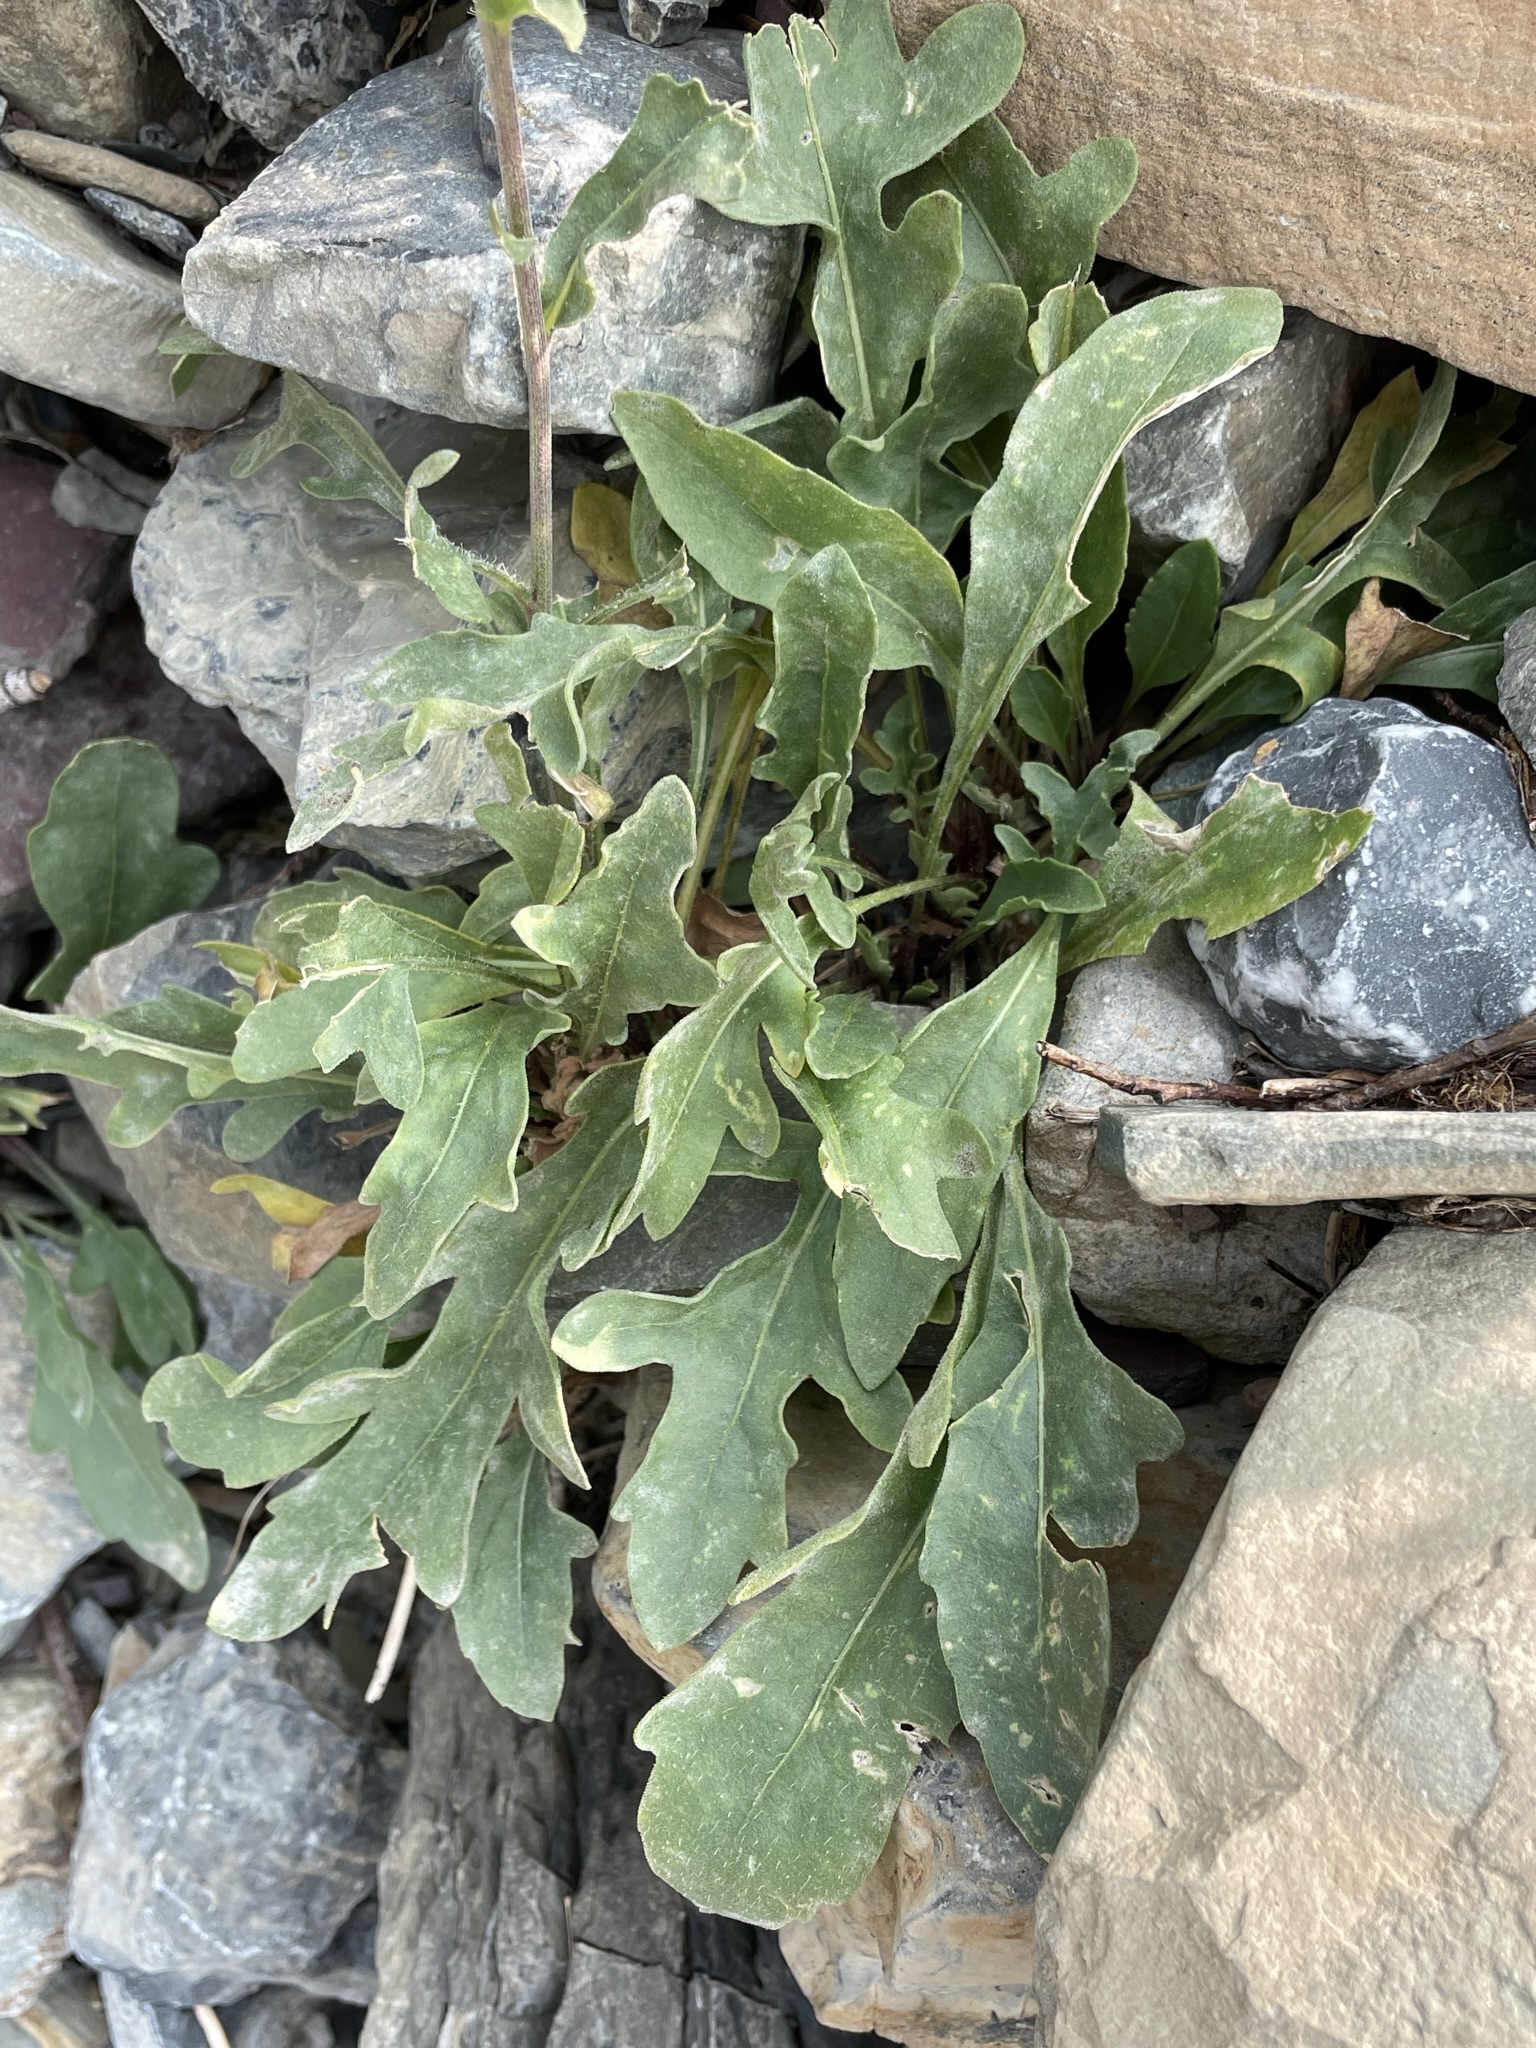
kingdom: Plantae
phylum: Tracheophyta
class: Magnoliopsida
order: Asterales
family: Asteraceae
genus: Gaillardia
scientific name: Gaillardia aristata
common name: Blanket-flower
